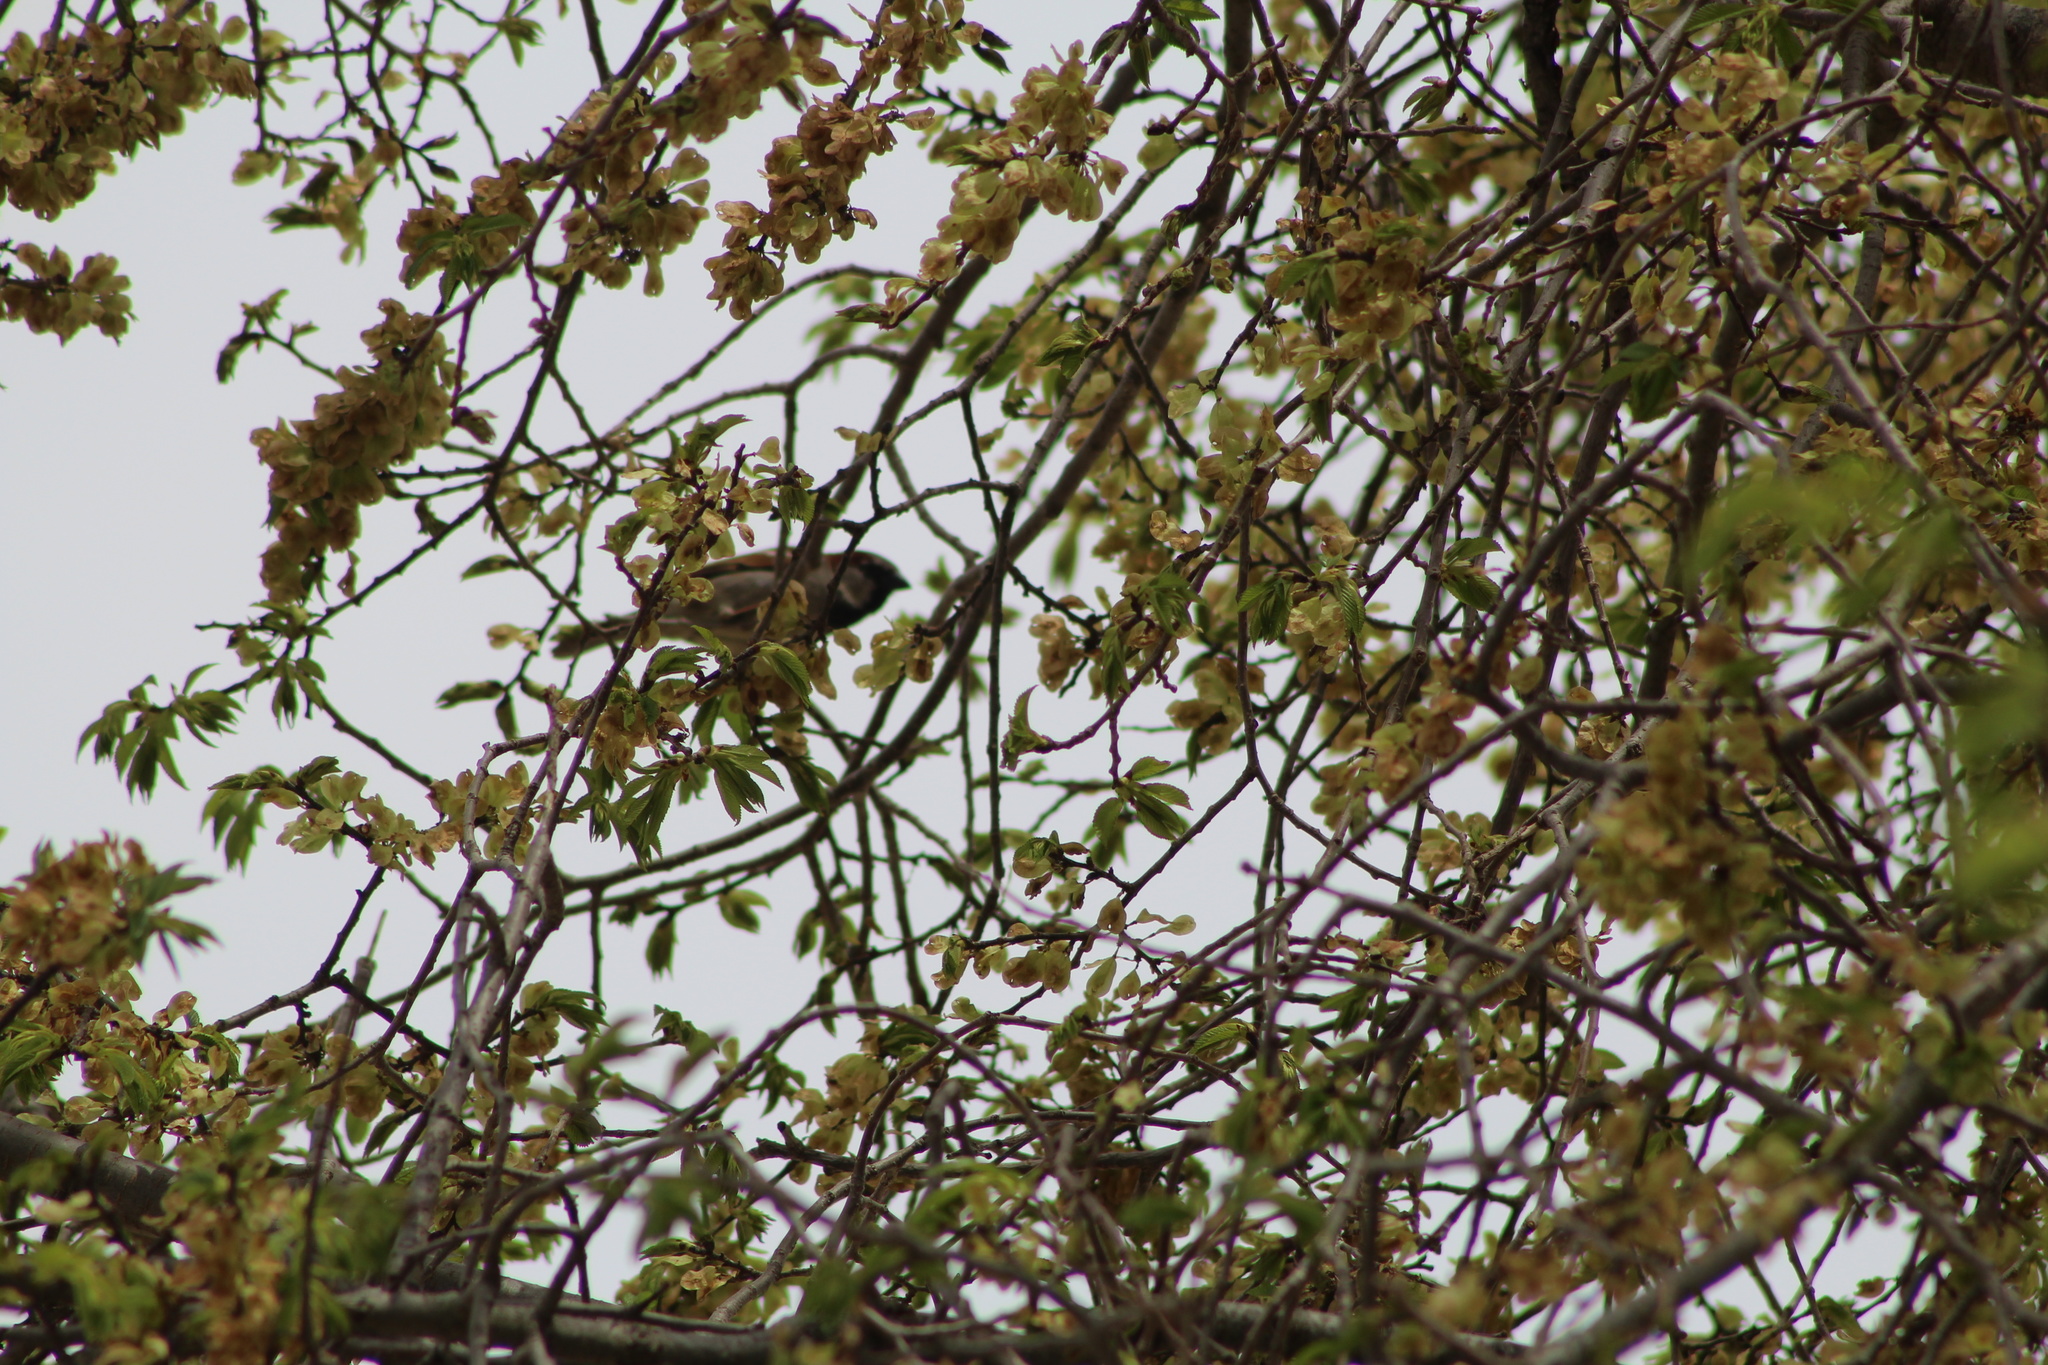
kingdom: Animalia
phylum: Chordata
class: Aves
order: Passeriformes
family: Passeridae
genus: Passer
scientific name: Passer domesticus
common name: House sparrow
